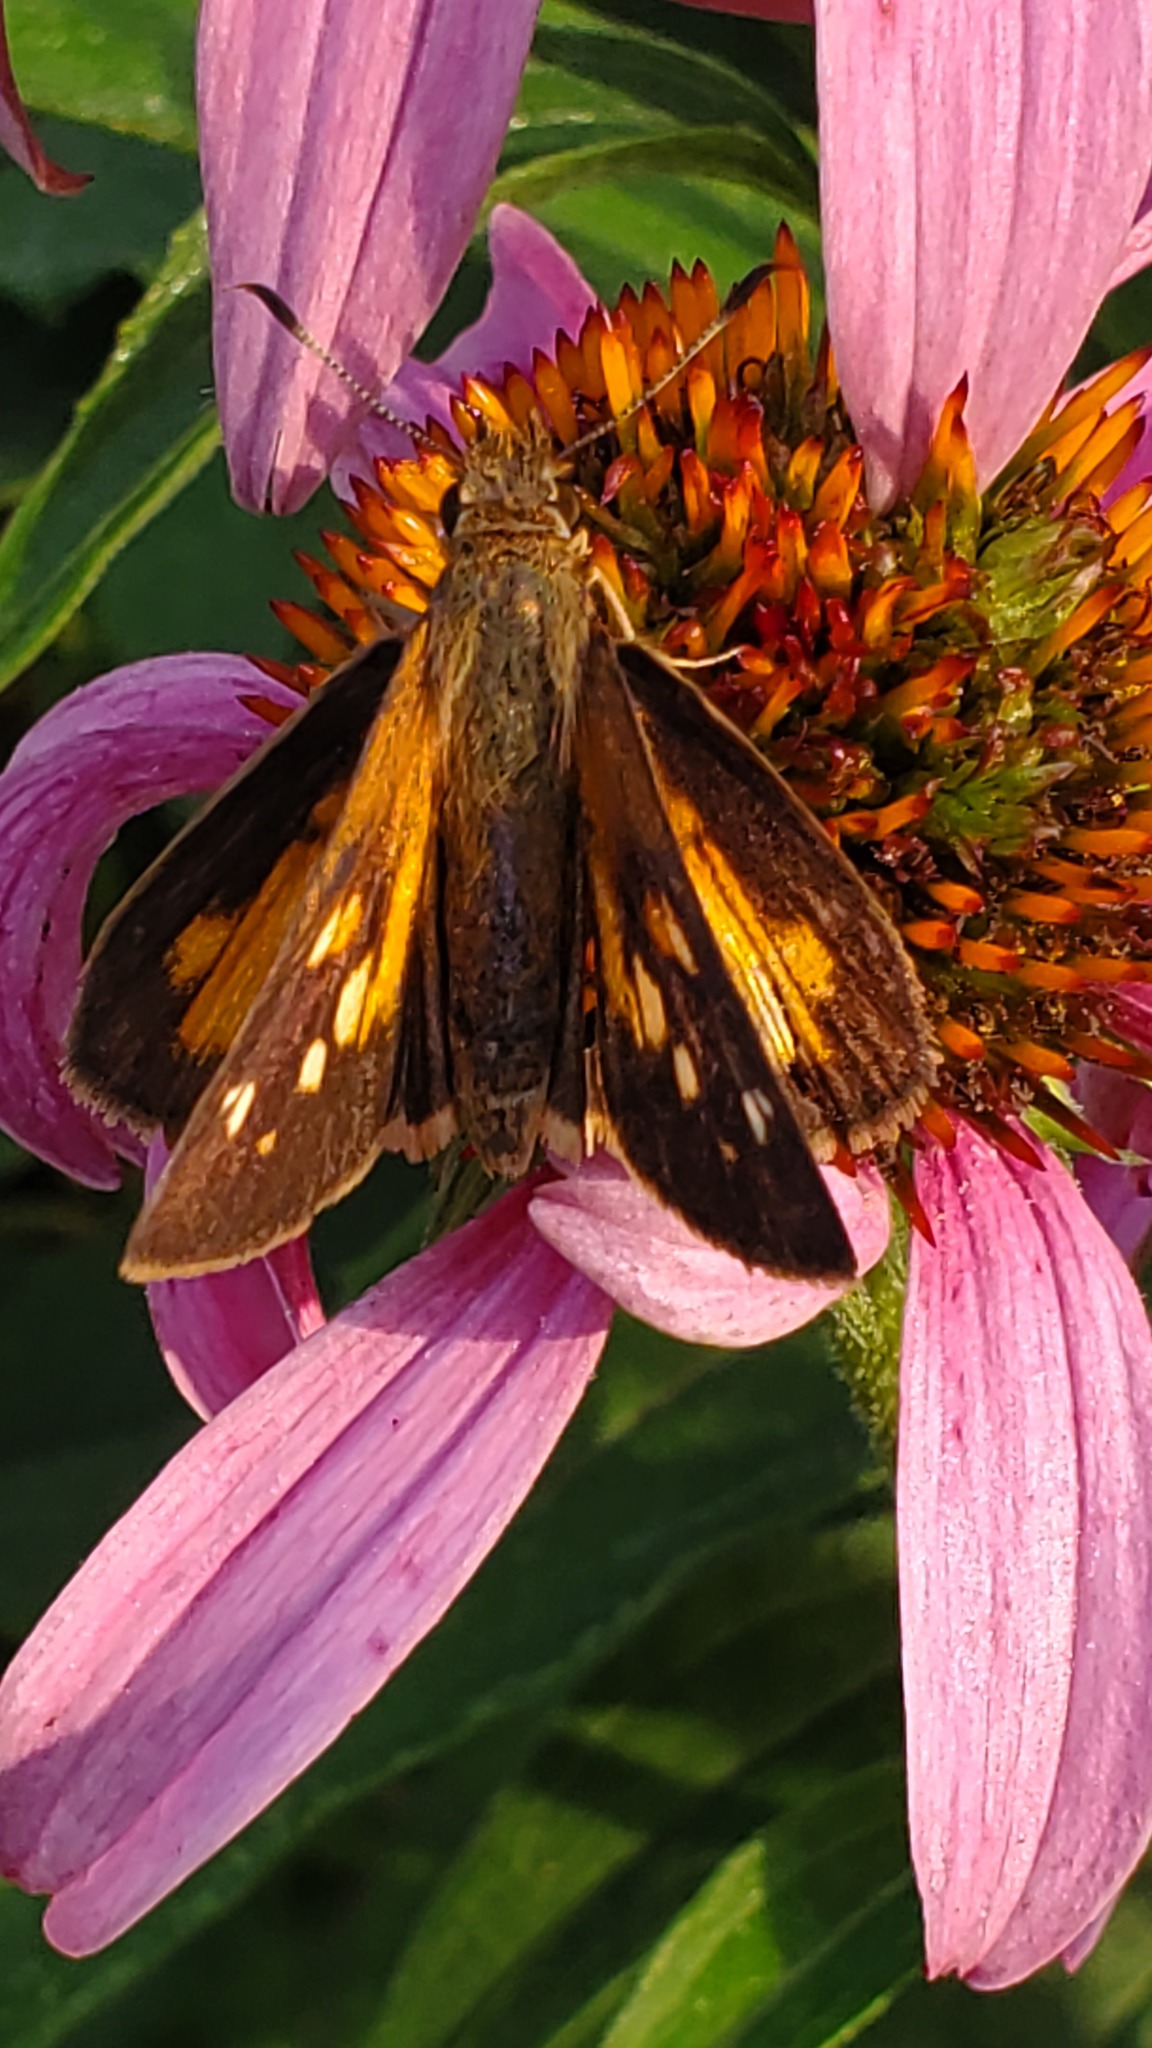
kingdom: Animalia
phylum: Arthropoda
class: Insecta
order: Lepidoptera
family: Hesperiidae
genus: Poanes
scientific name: Poanes viator
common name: Broad-winged skipper
